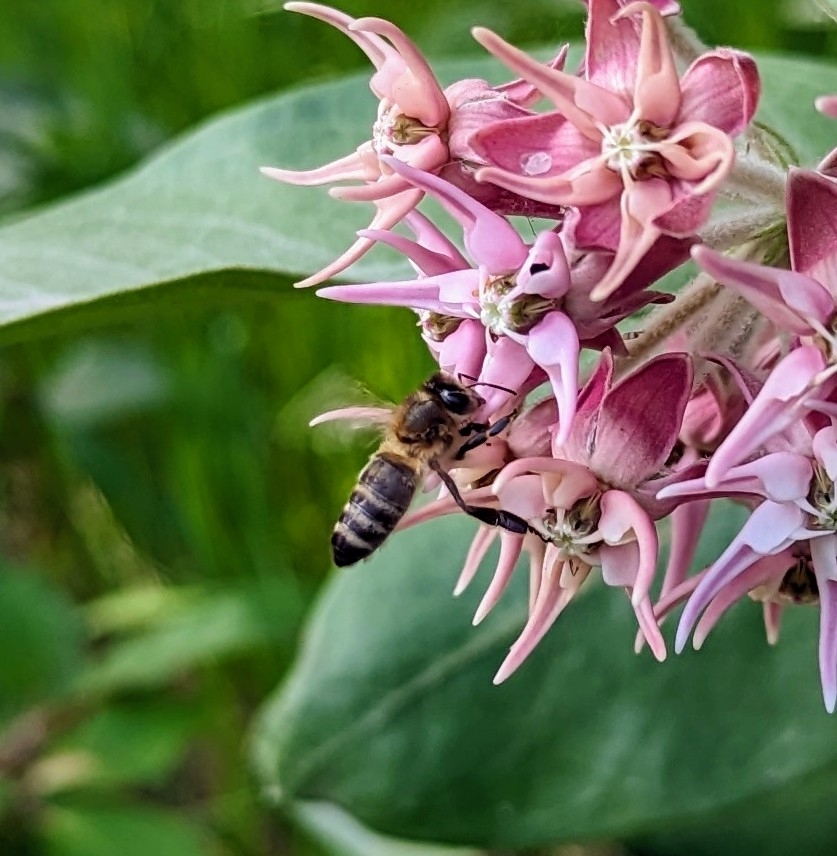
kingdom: Animalia
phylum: Arthropoda
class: Insecta
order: Hymenoptera
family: Apidae
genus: Apis
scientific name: Apis mellifera
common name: Honey bee
